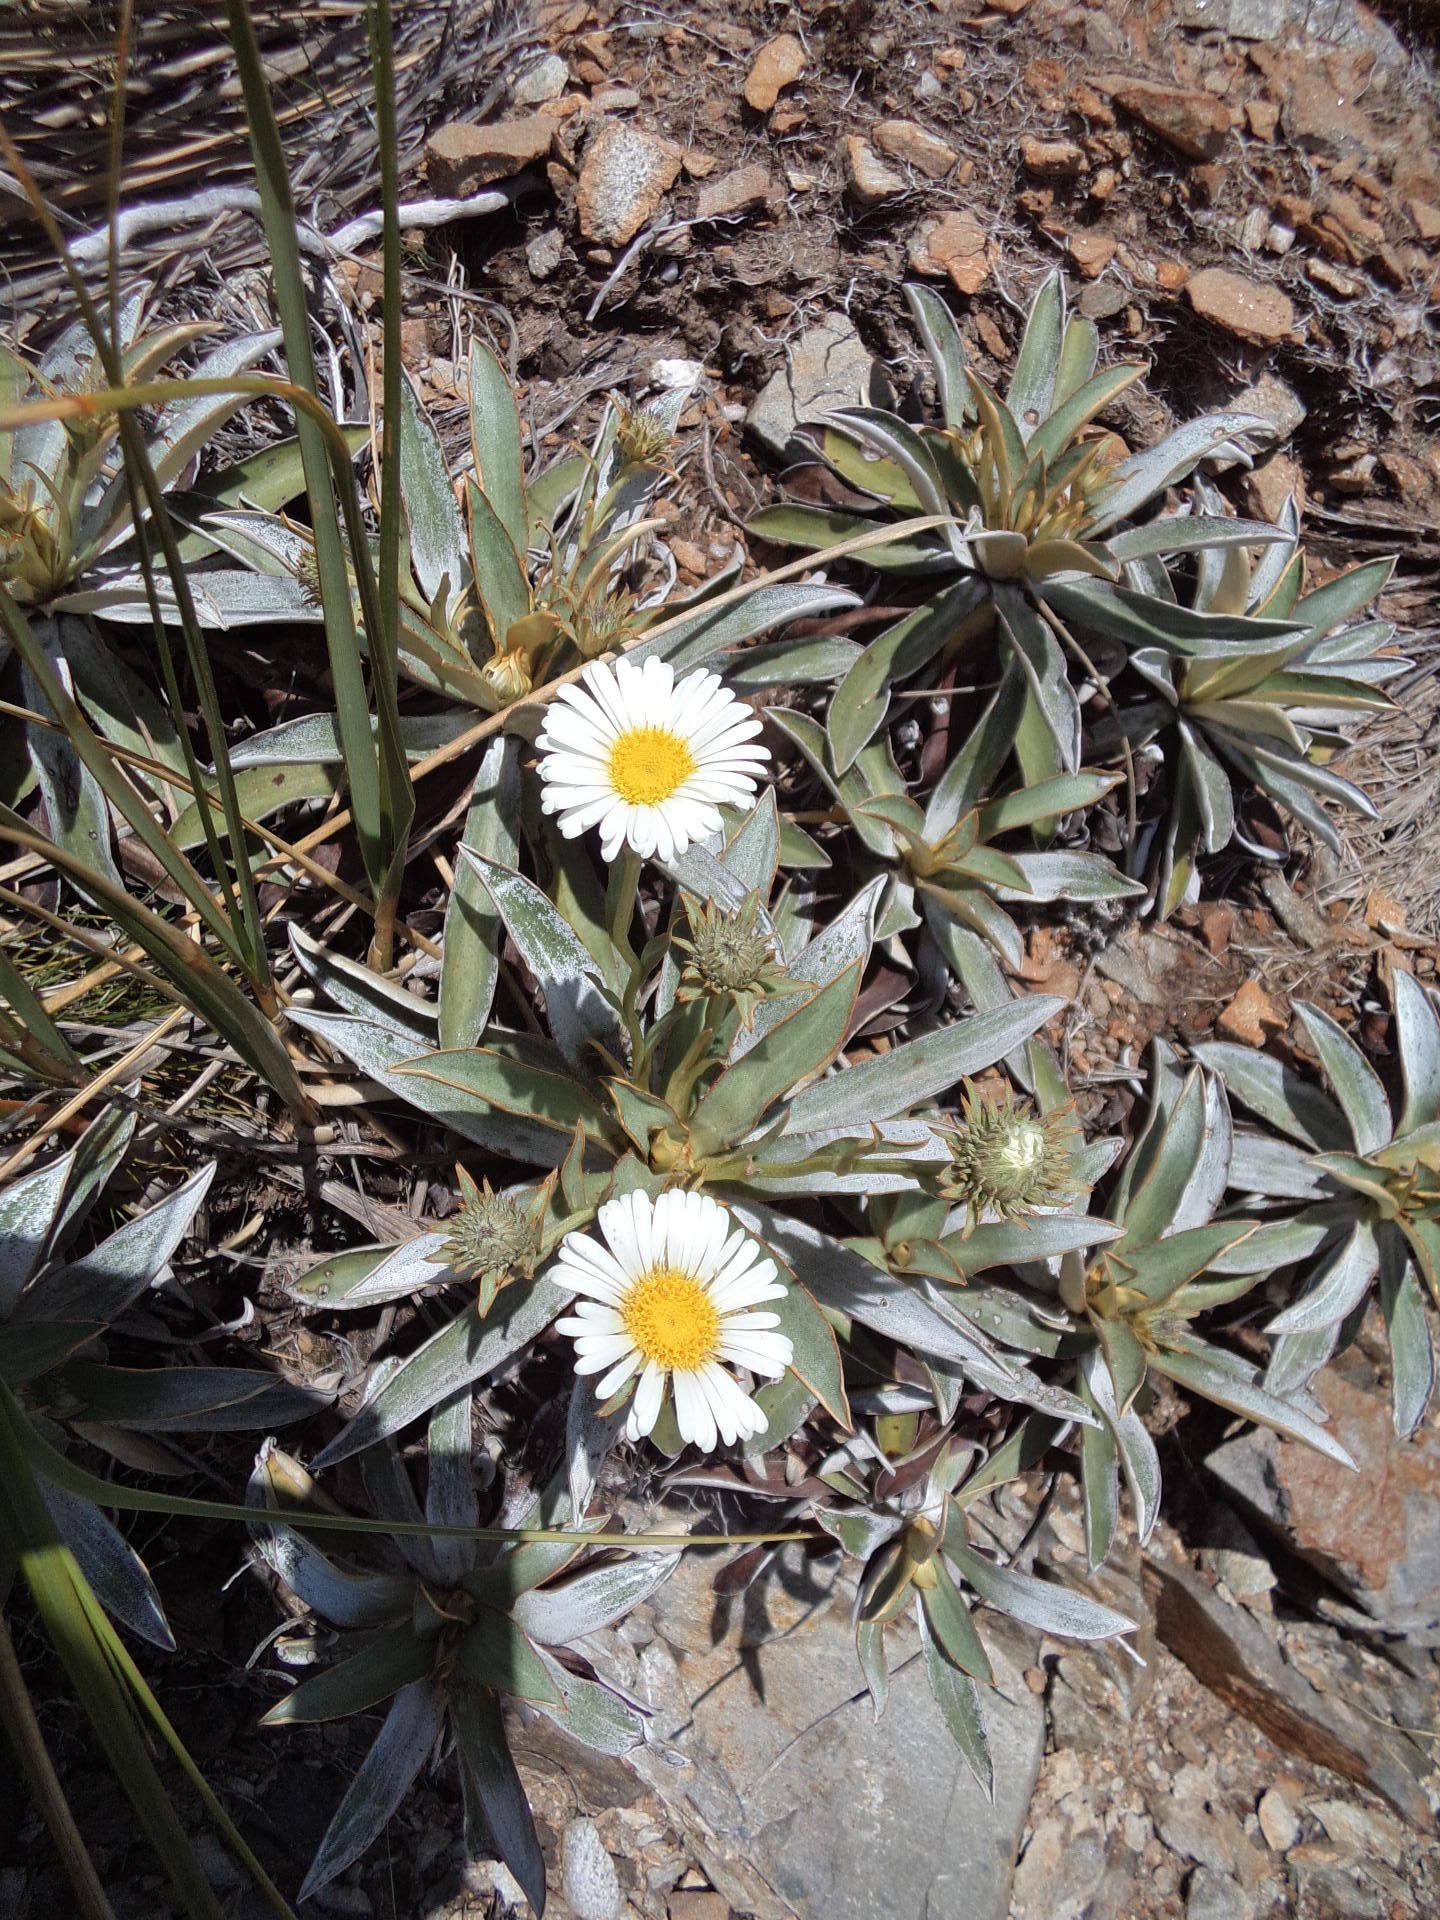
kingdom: Plantae
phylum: Tracheophyta
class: Magnoliopsida
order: Asterales
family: Asteraceae
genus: Celmisia
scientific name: Celmisia dallii
